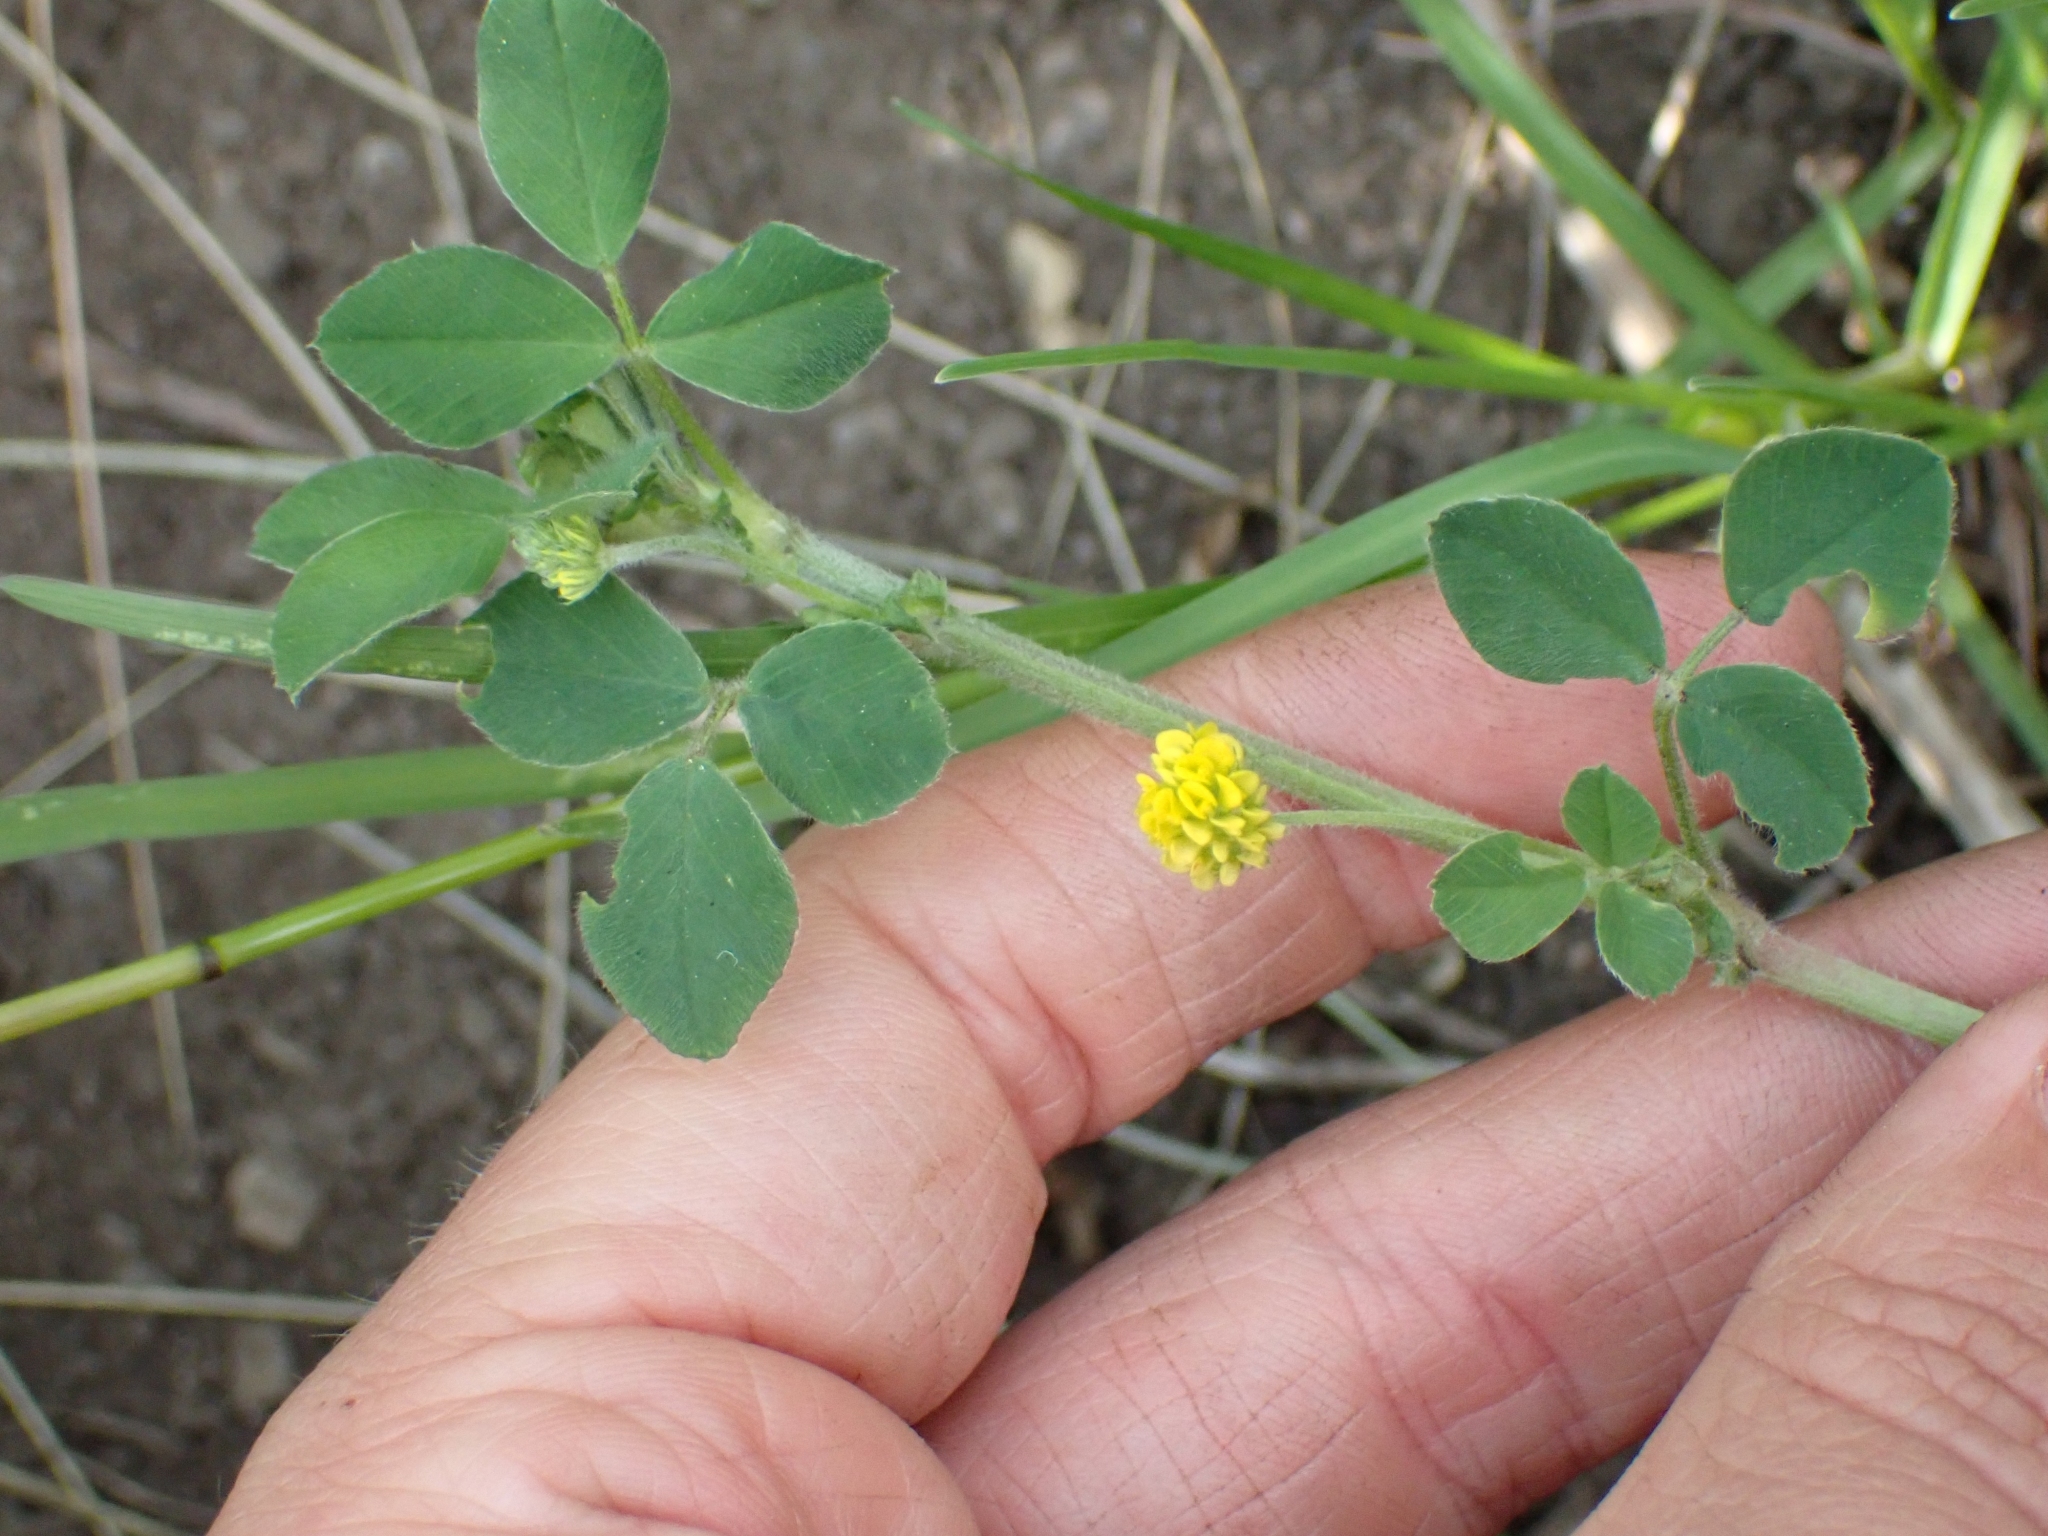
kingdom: Plantae
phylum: Tracheophyta
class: Magnoliopsida
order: Fabales
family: Fabaceae
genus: Medicago
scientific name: Medicago lupulina
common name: Black medick
